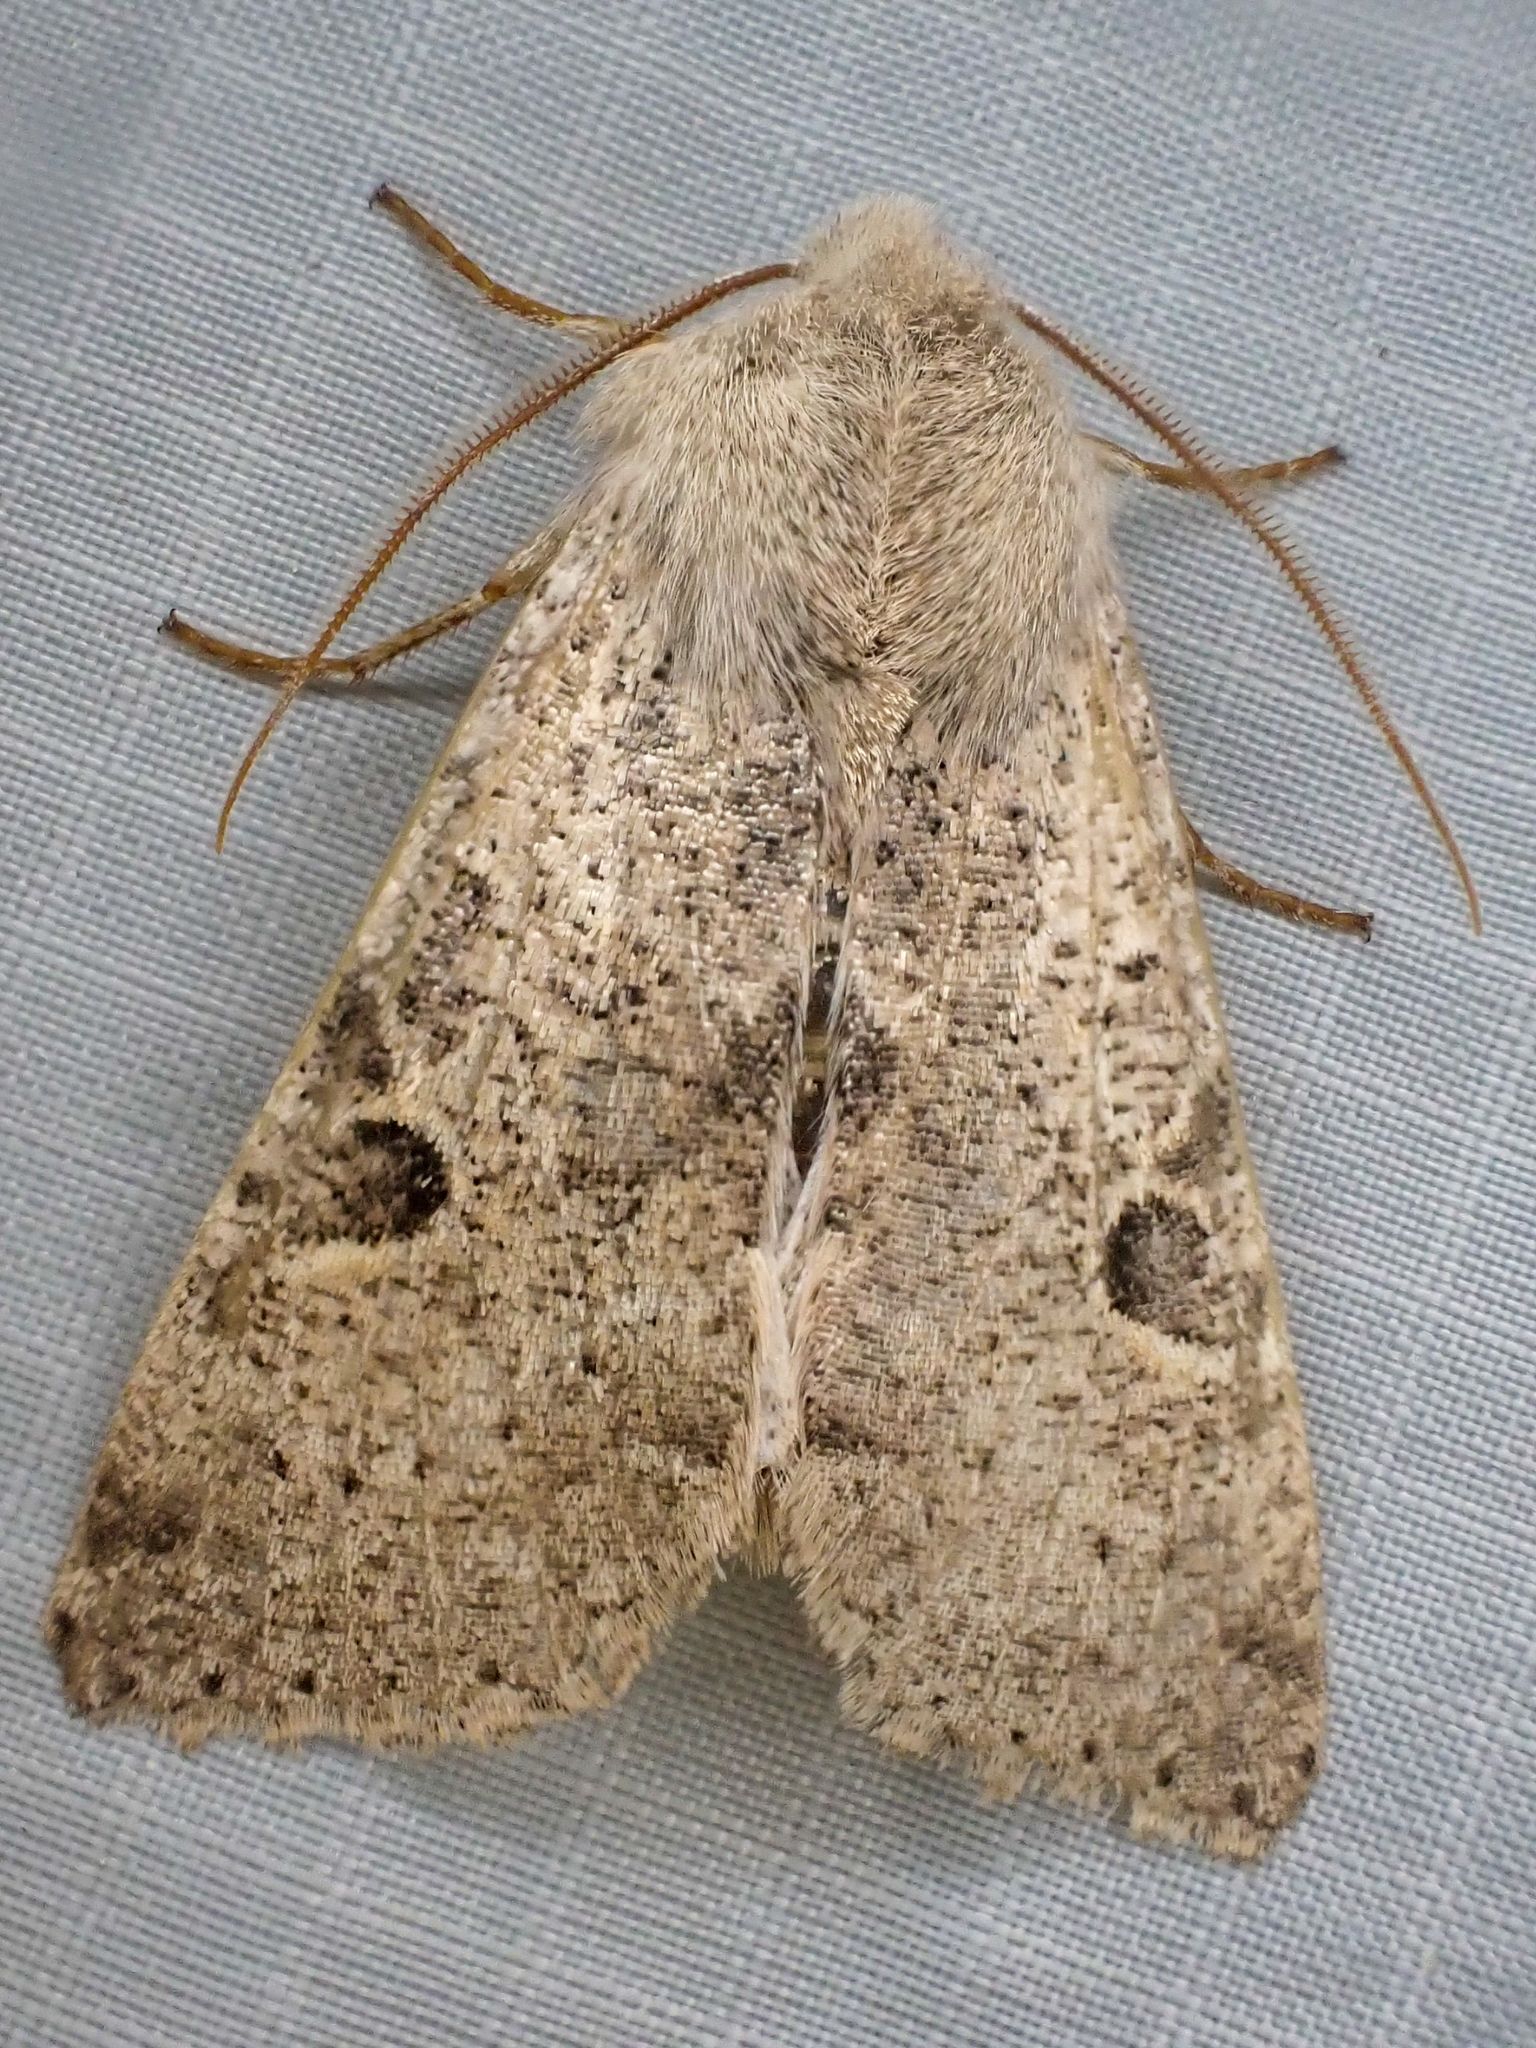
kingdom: Animalia
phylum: Arthropoda
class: Insecta
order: Lepidoptera
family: Noctuidae
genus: Orthosia
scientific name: Orthosia behrensiana
